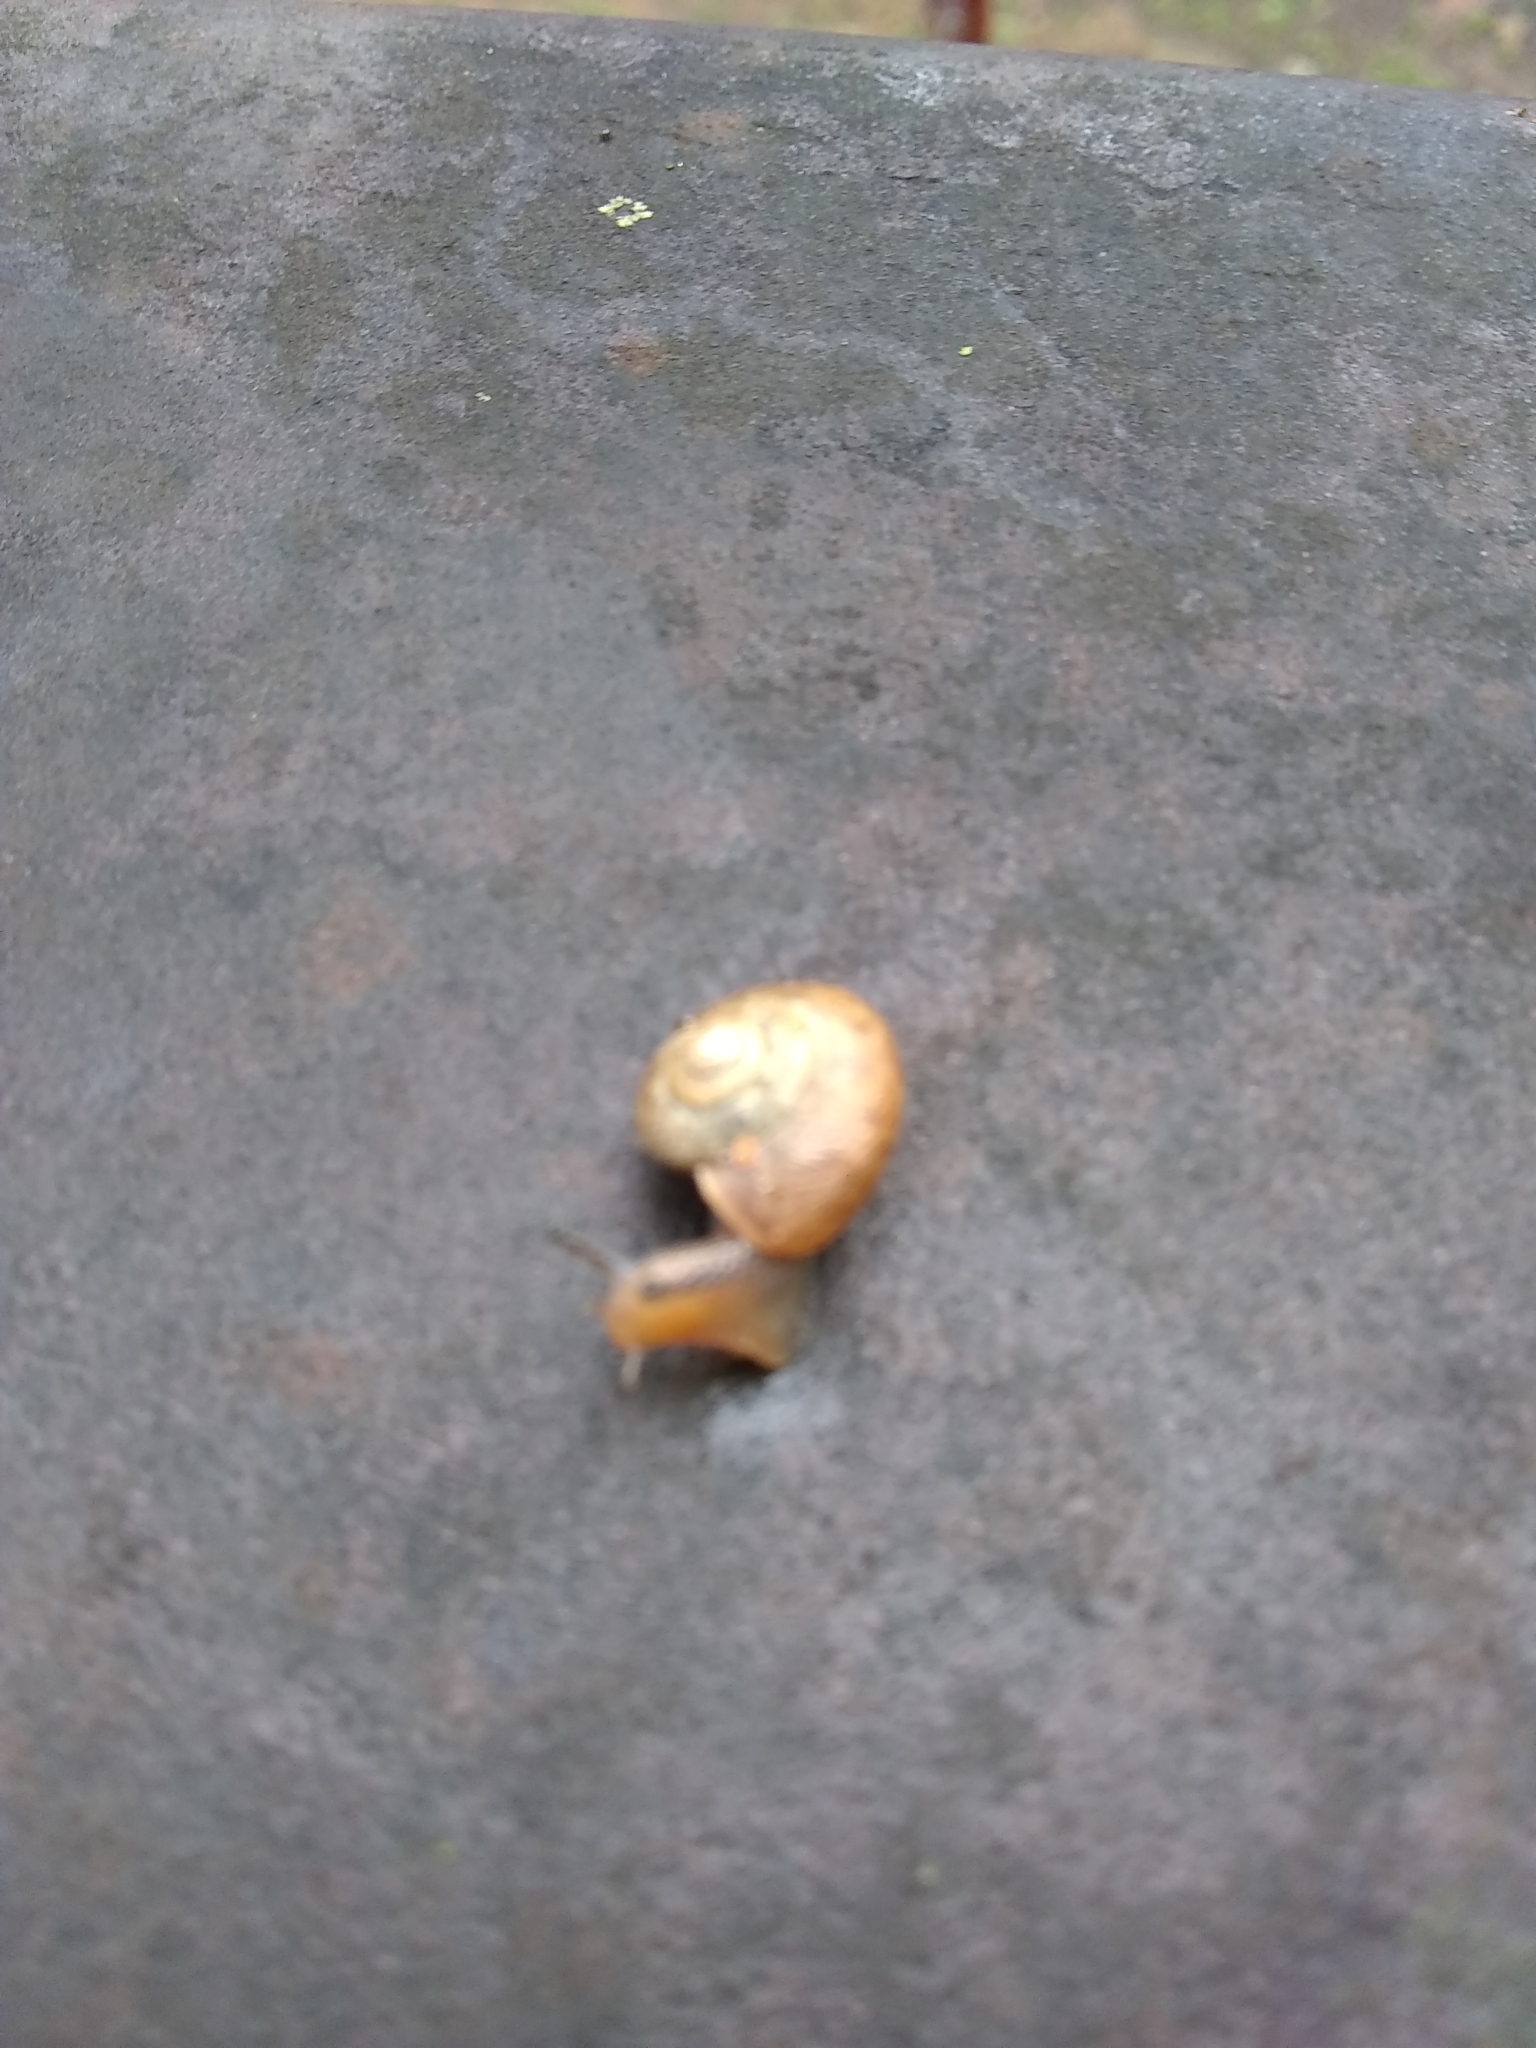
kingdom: Animalia
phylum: Mollusca
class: Gastropoda
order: Stylommatophora
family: Camaenidae
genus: Bradybaena
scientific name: Bradybaena similaris
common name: Asian trampsnail
